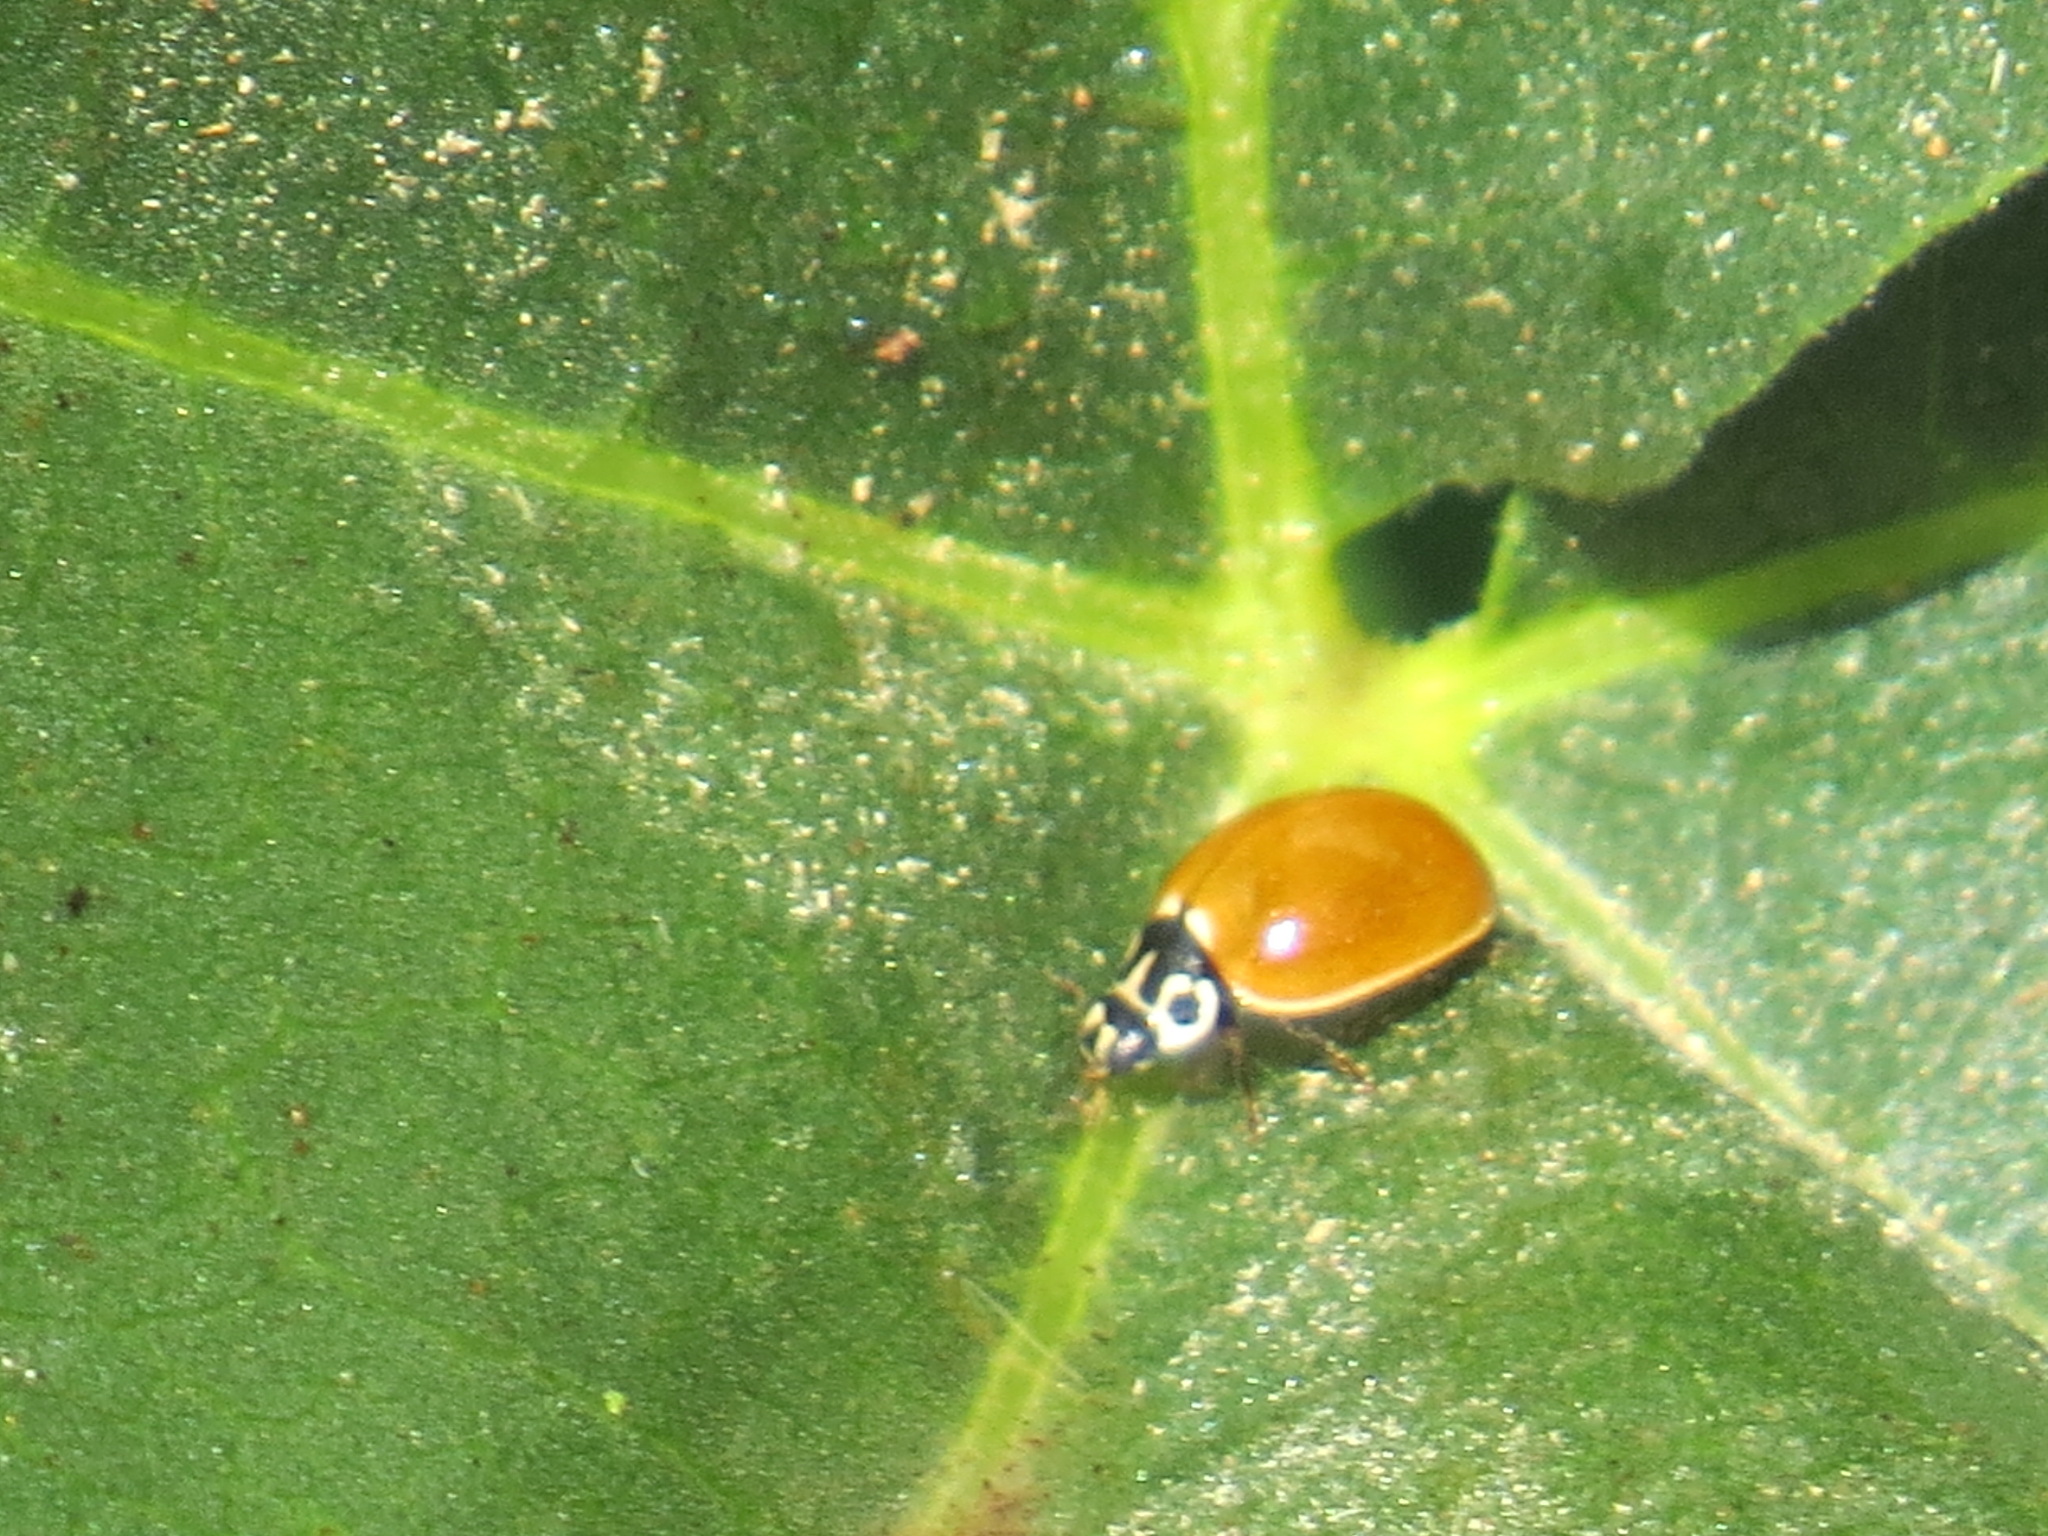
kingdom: Animalia
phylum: Arthropoda
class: Insecta
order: Coleoptera
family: Coccinellidae
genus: Cycloneda
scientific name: Cycloneda polita
